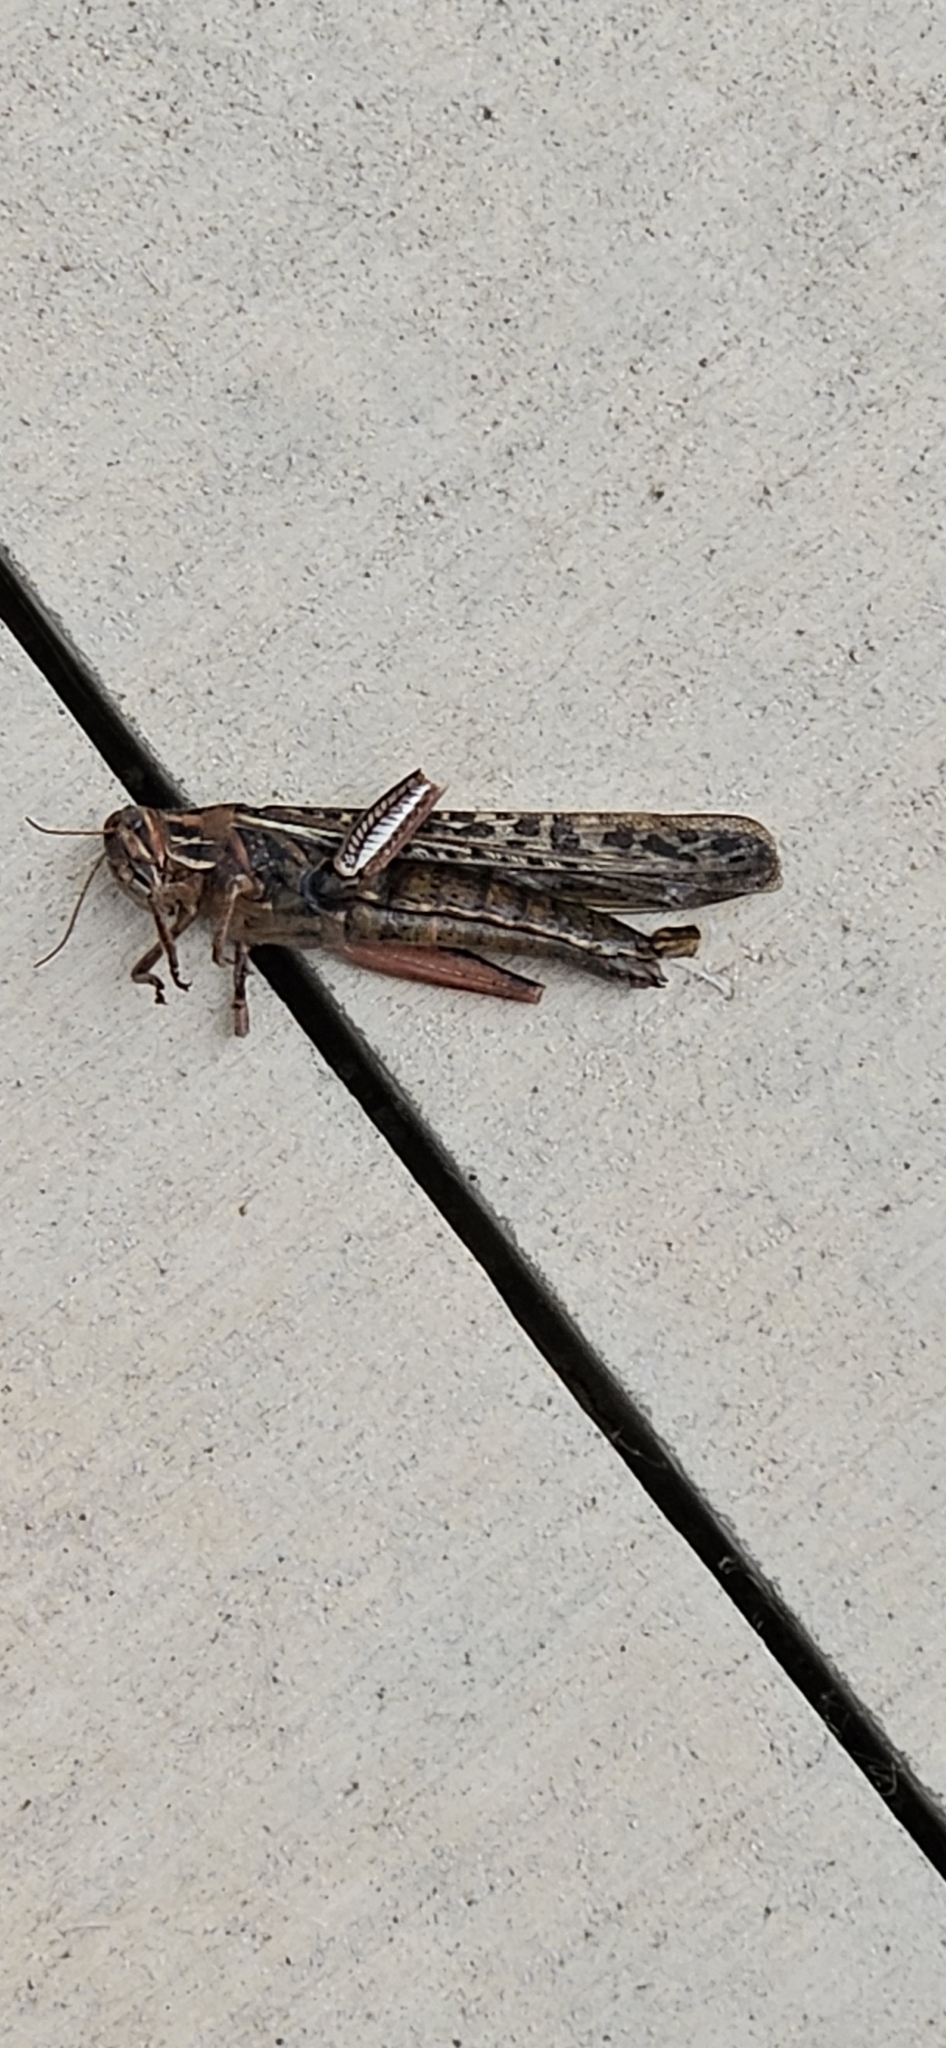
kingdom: Animalia
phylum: Arthropoda
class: Insecta
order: Orthoptera
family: Acrididae
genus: Schistocerca
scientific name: Schistocerca americana
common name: American bird locust
